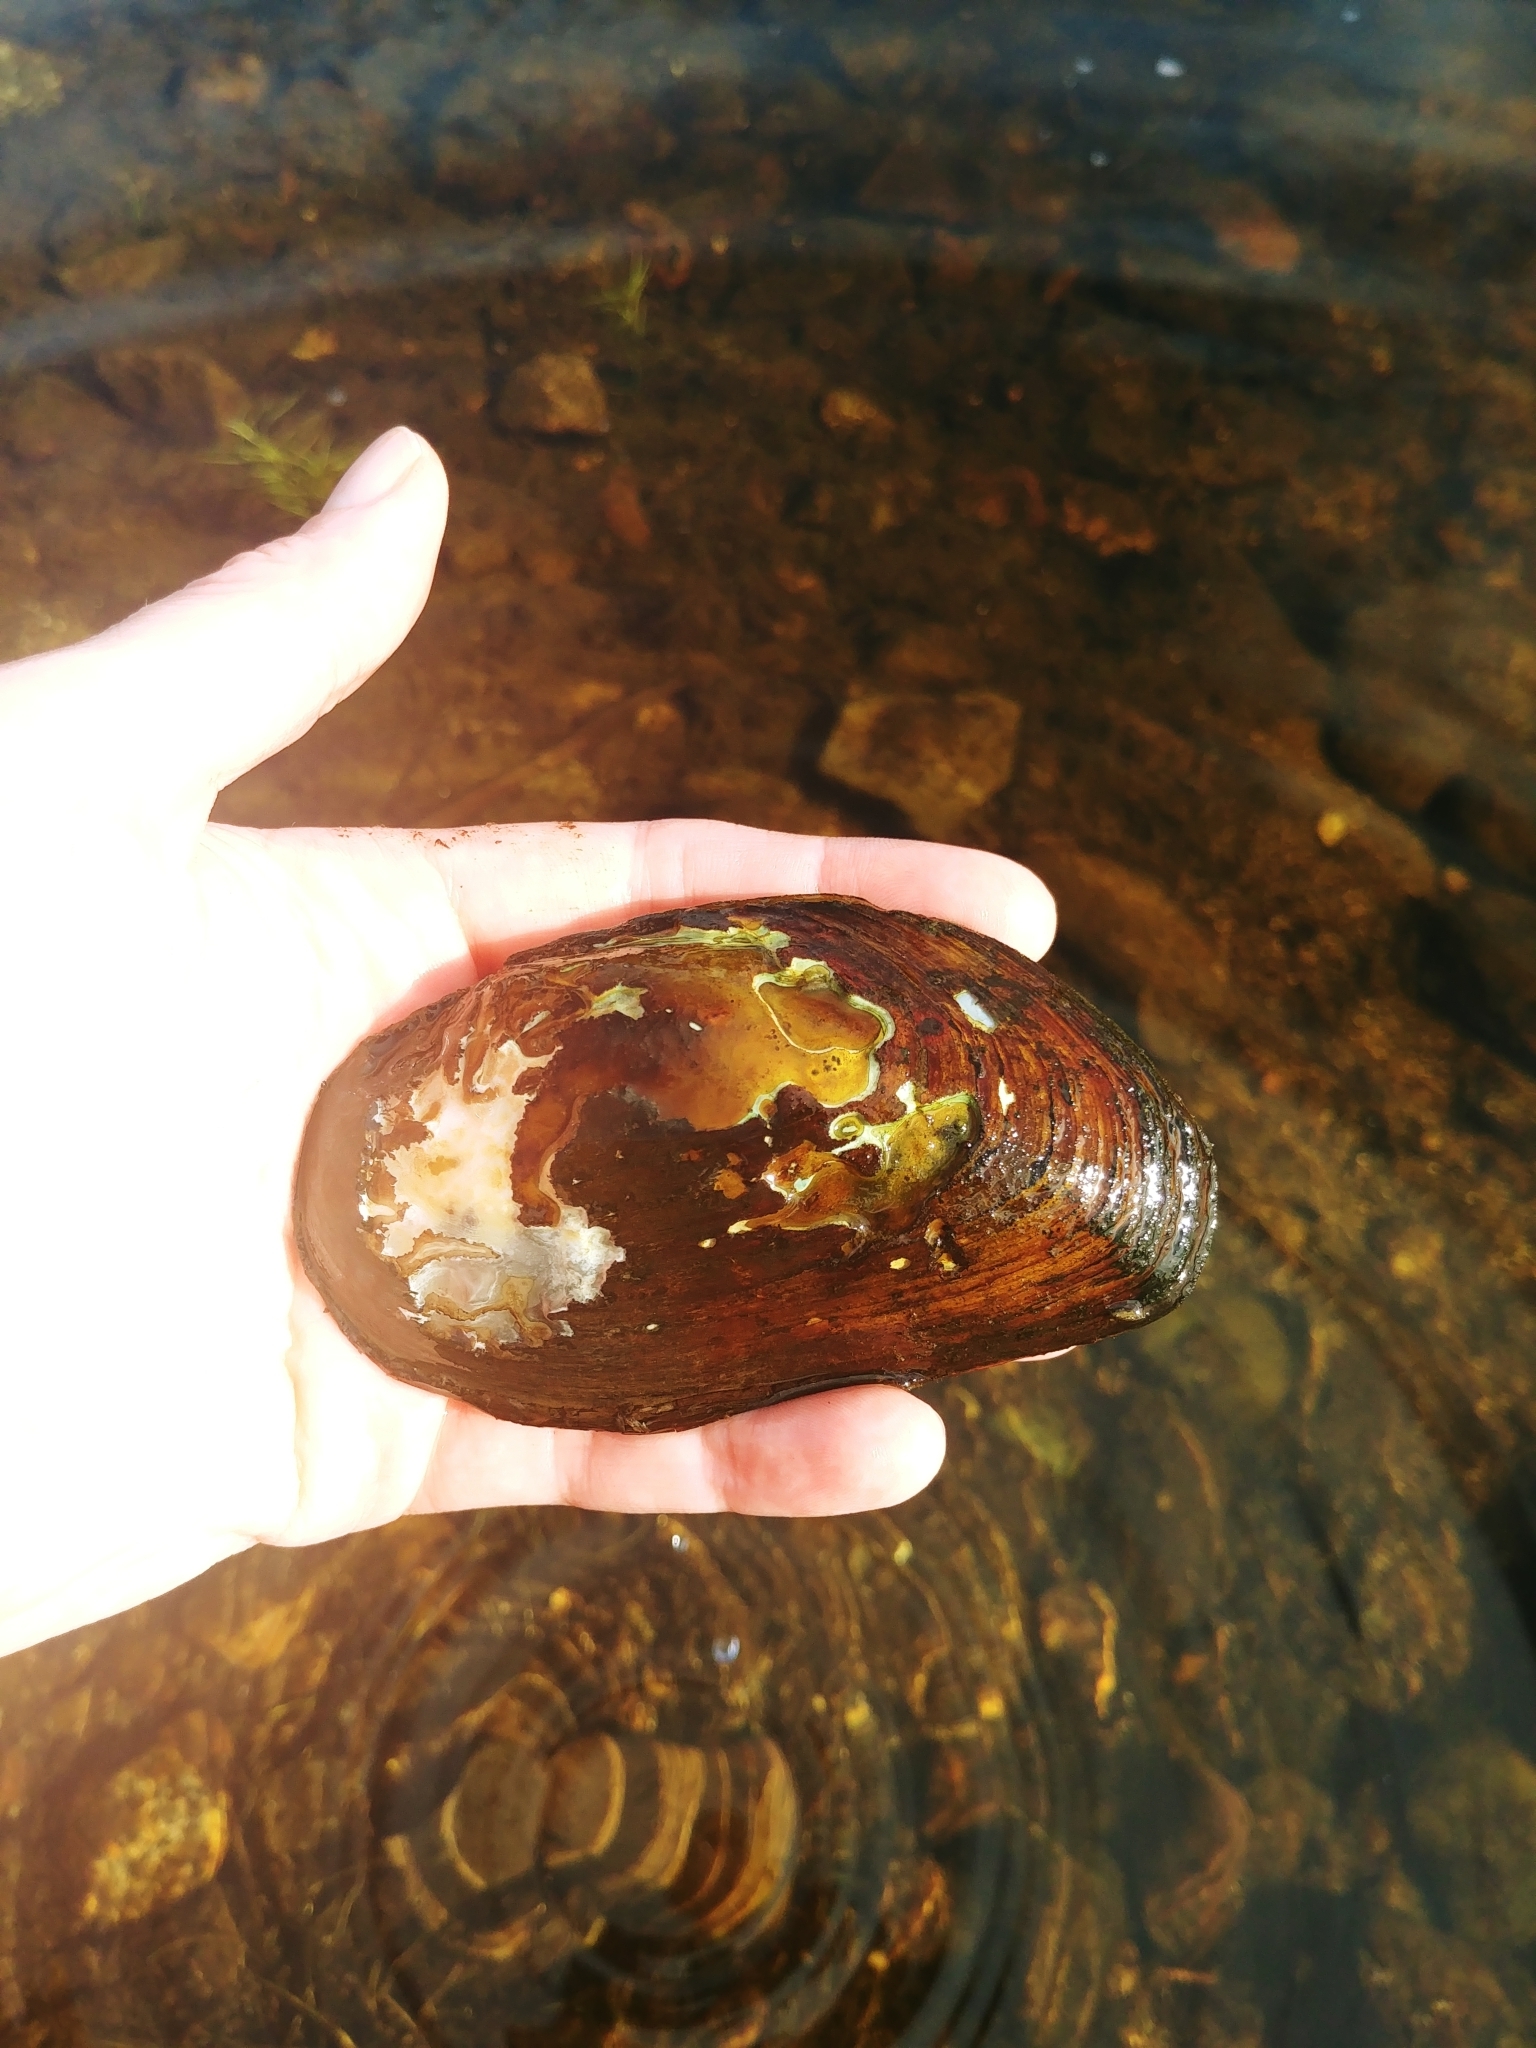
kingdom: Animalia
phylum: Mollusca
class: Bivalvia
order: Unionida
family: Unionidae
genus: Elliptio
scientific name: Elliptio complanata
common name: Eastern elliptio
